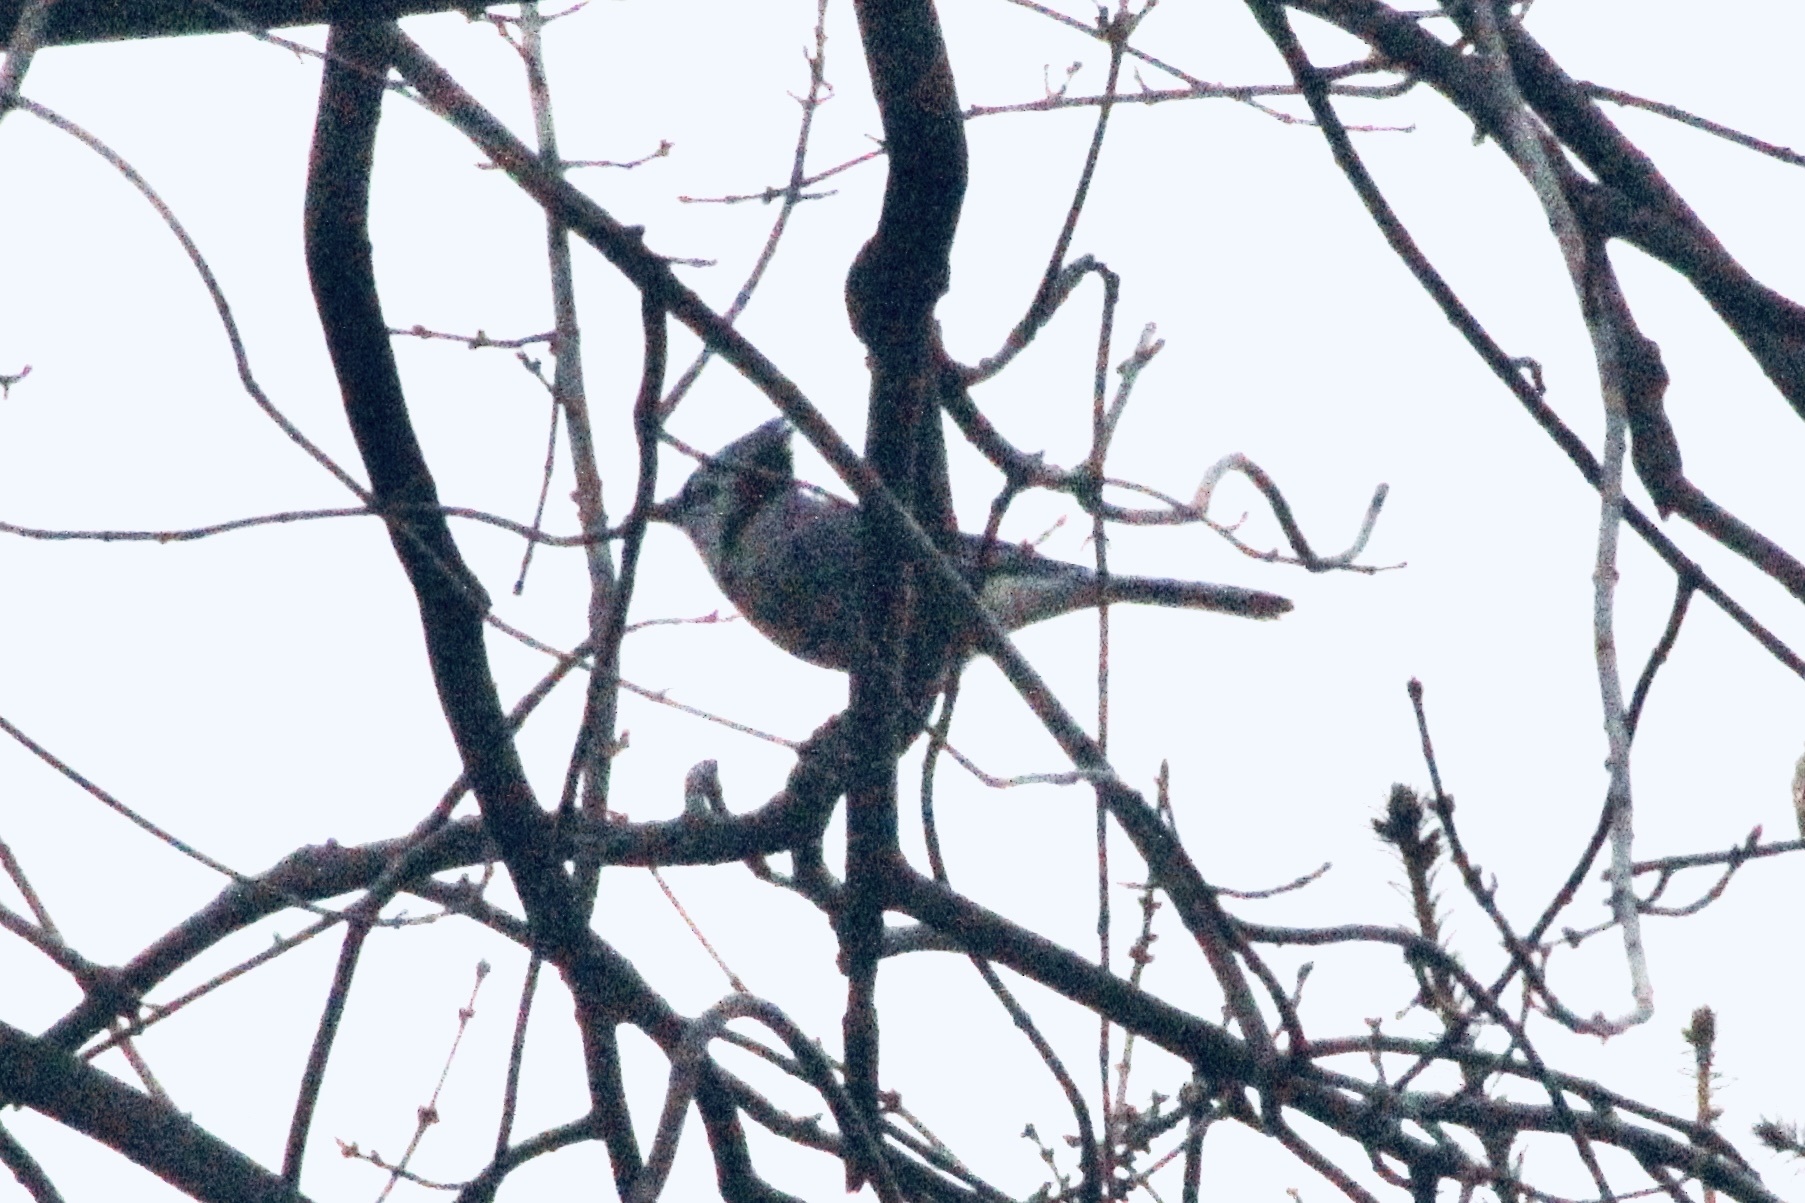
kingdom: Animalia
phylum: Chordata
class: Aves
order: Passeriformes
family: Corvidae
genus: Cyanocitta
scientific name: Cyanocitta cristata
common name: Blue jay
